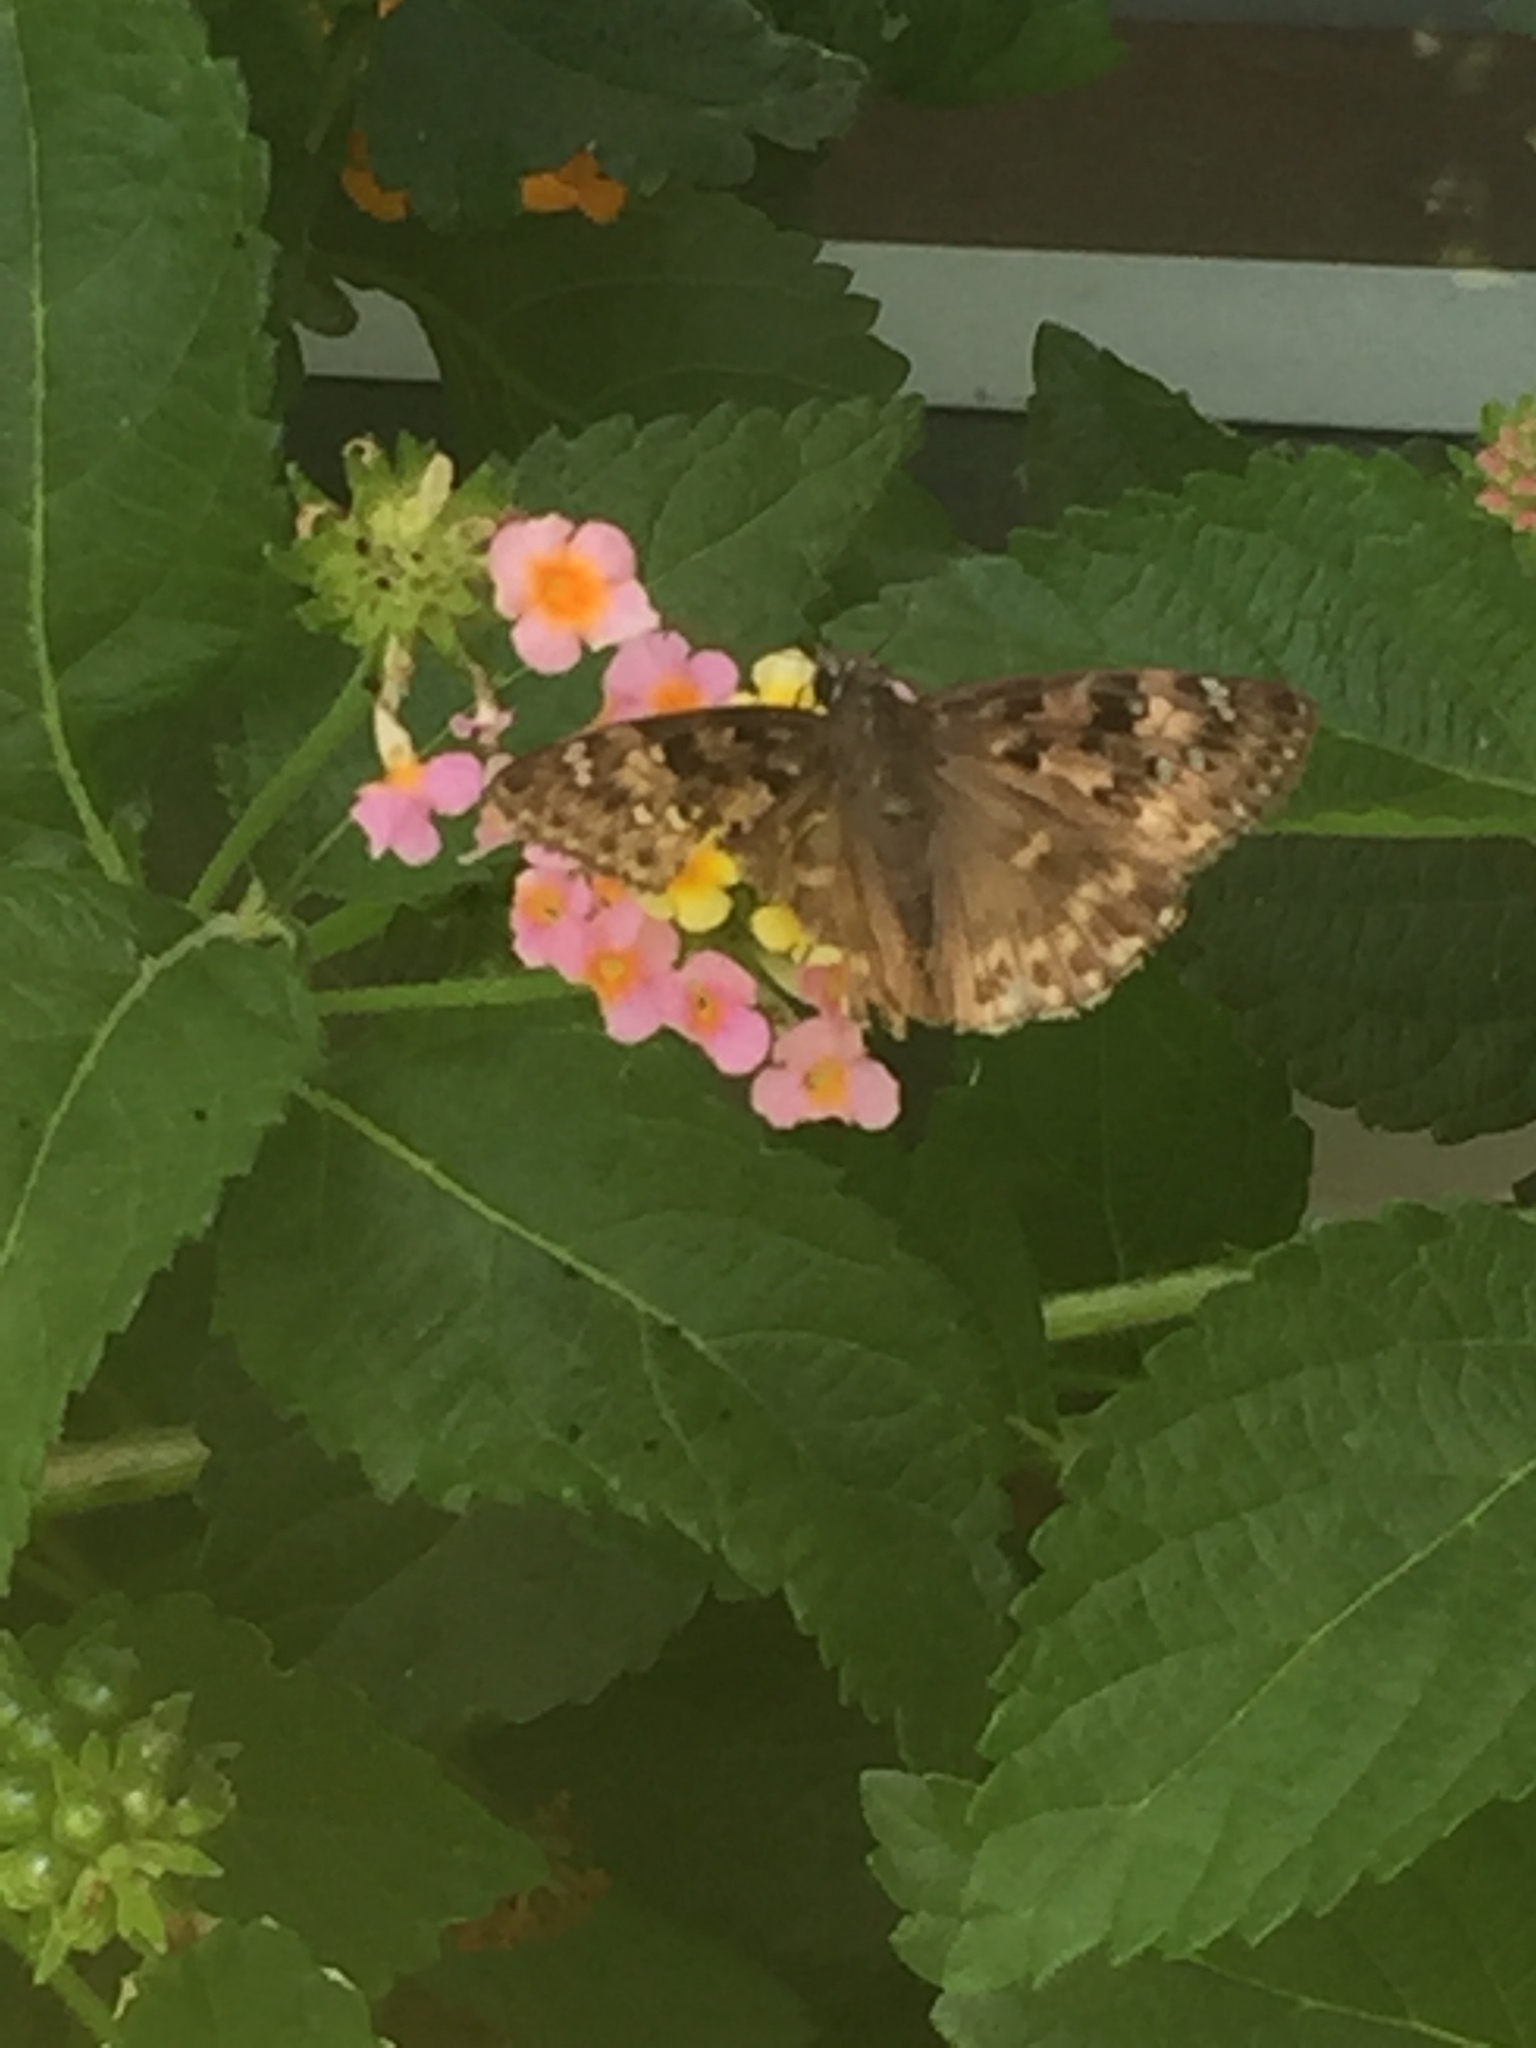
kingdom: Animalia
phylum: Arthropoda
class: Insecta
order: Lepidoptera
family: Hesperiidae
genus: Erynnis
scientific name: Erynnis horatius
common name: Horace's duskywing
